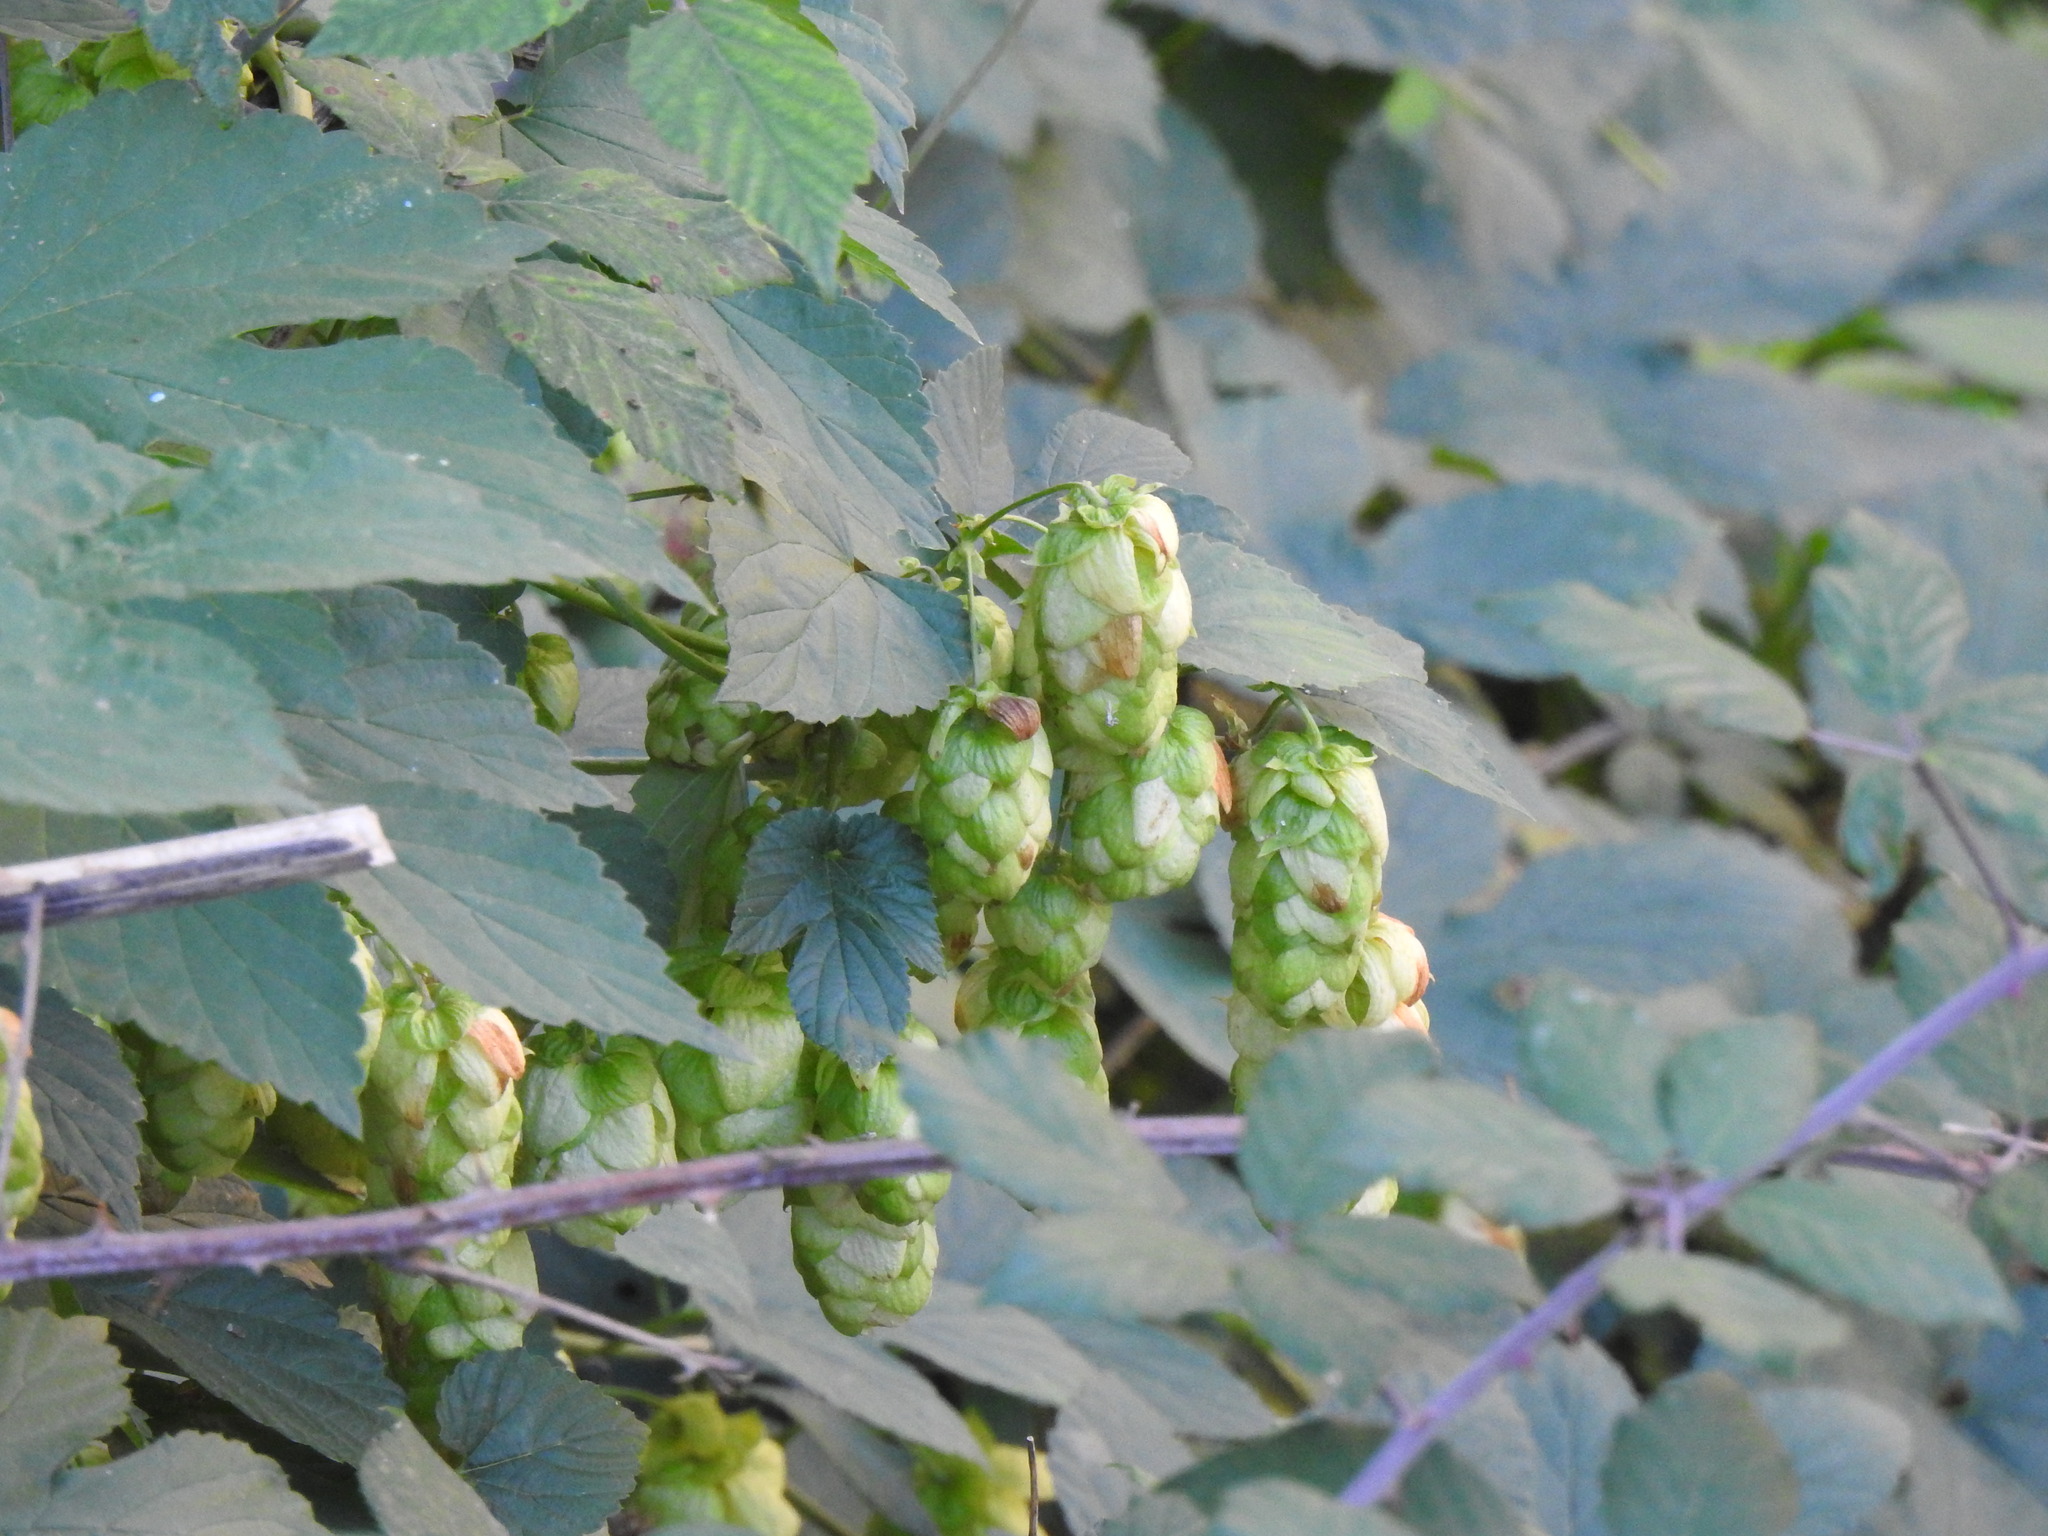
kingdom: Plantae
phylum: Tracheophyta
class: Magnoliopsida
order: Rosales
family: Cannabaceae
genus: Humulus
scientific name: Humulus lupulus
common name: Hop
